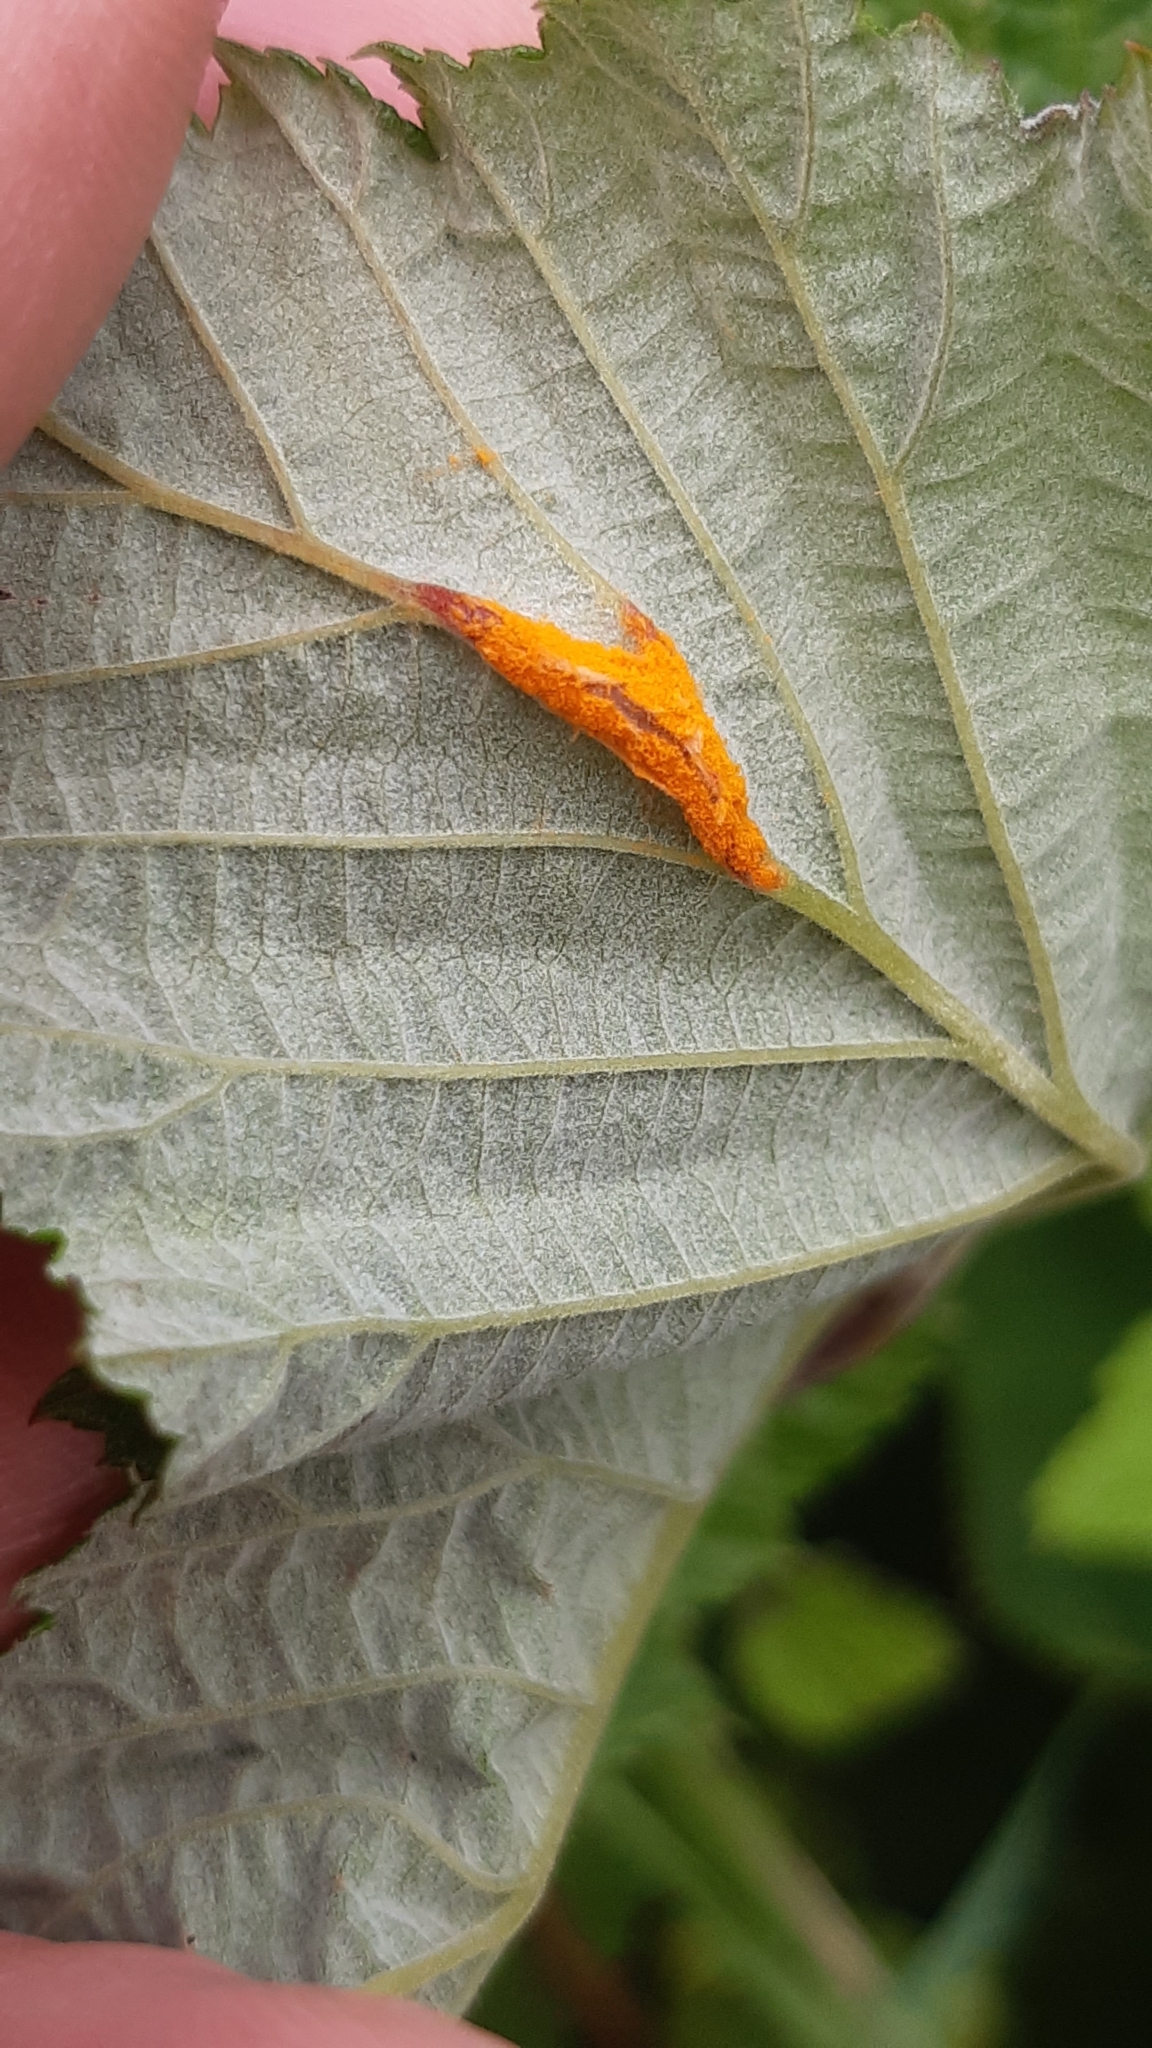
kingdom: Fungi
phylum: Basidiomycota
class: Pucciniomycetes
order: Pucciniales
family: Raveneliaceae
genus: Triphragmium
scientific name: Triphragmium ulmariae
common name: Meadowsweet rust
